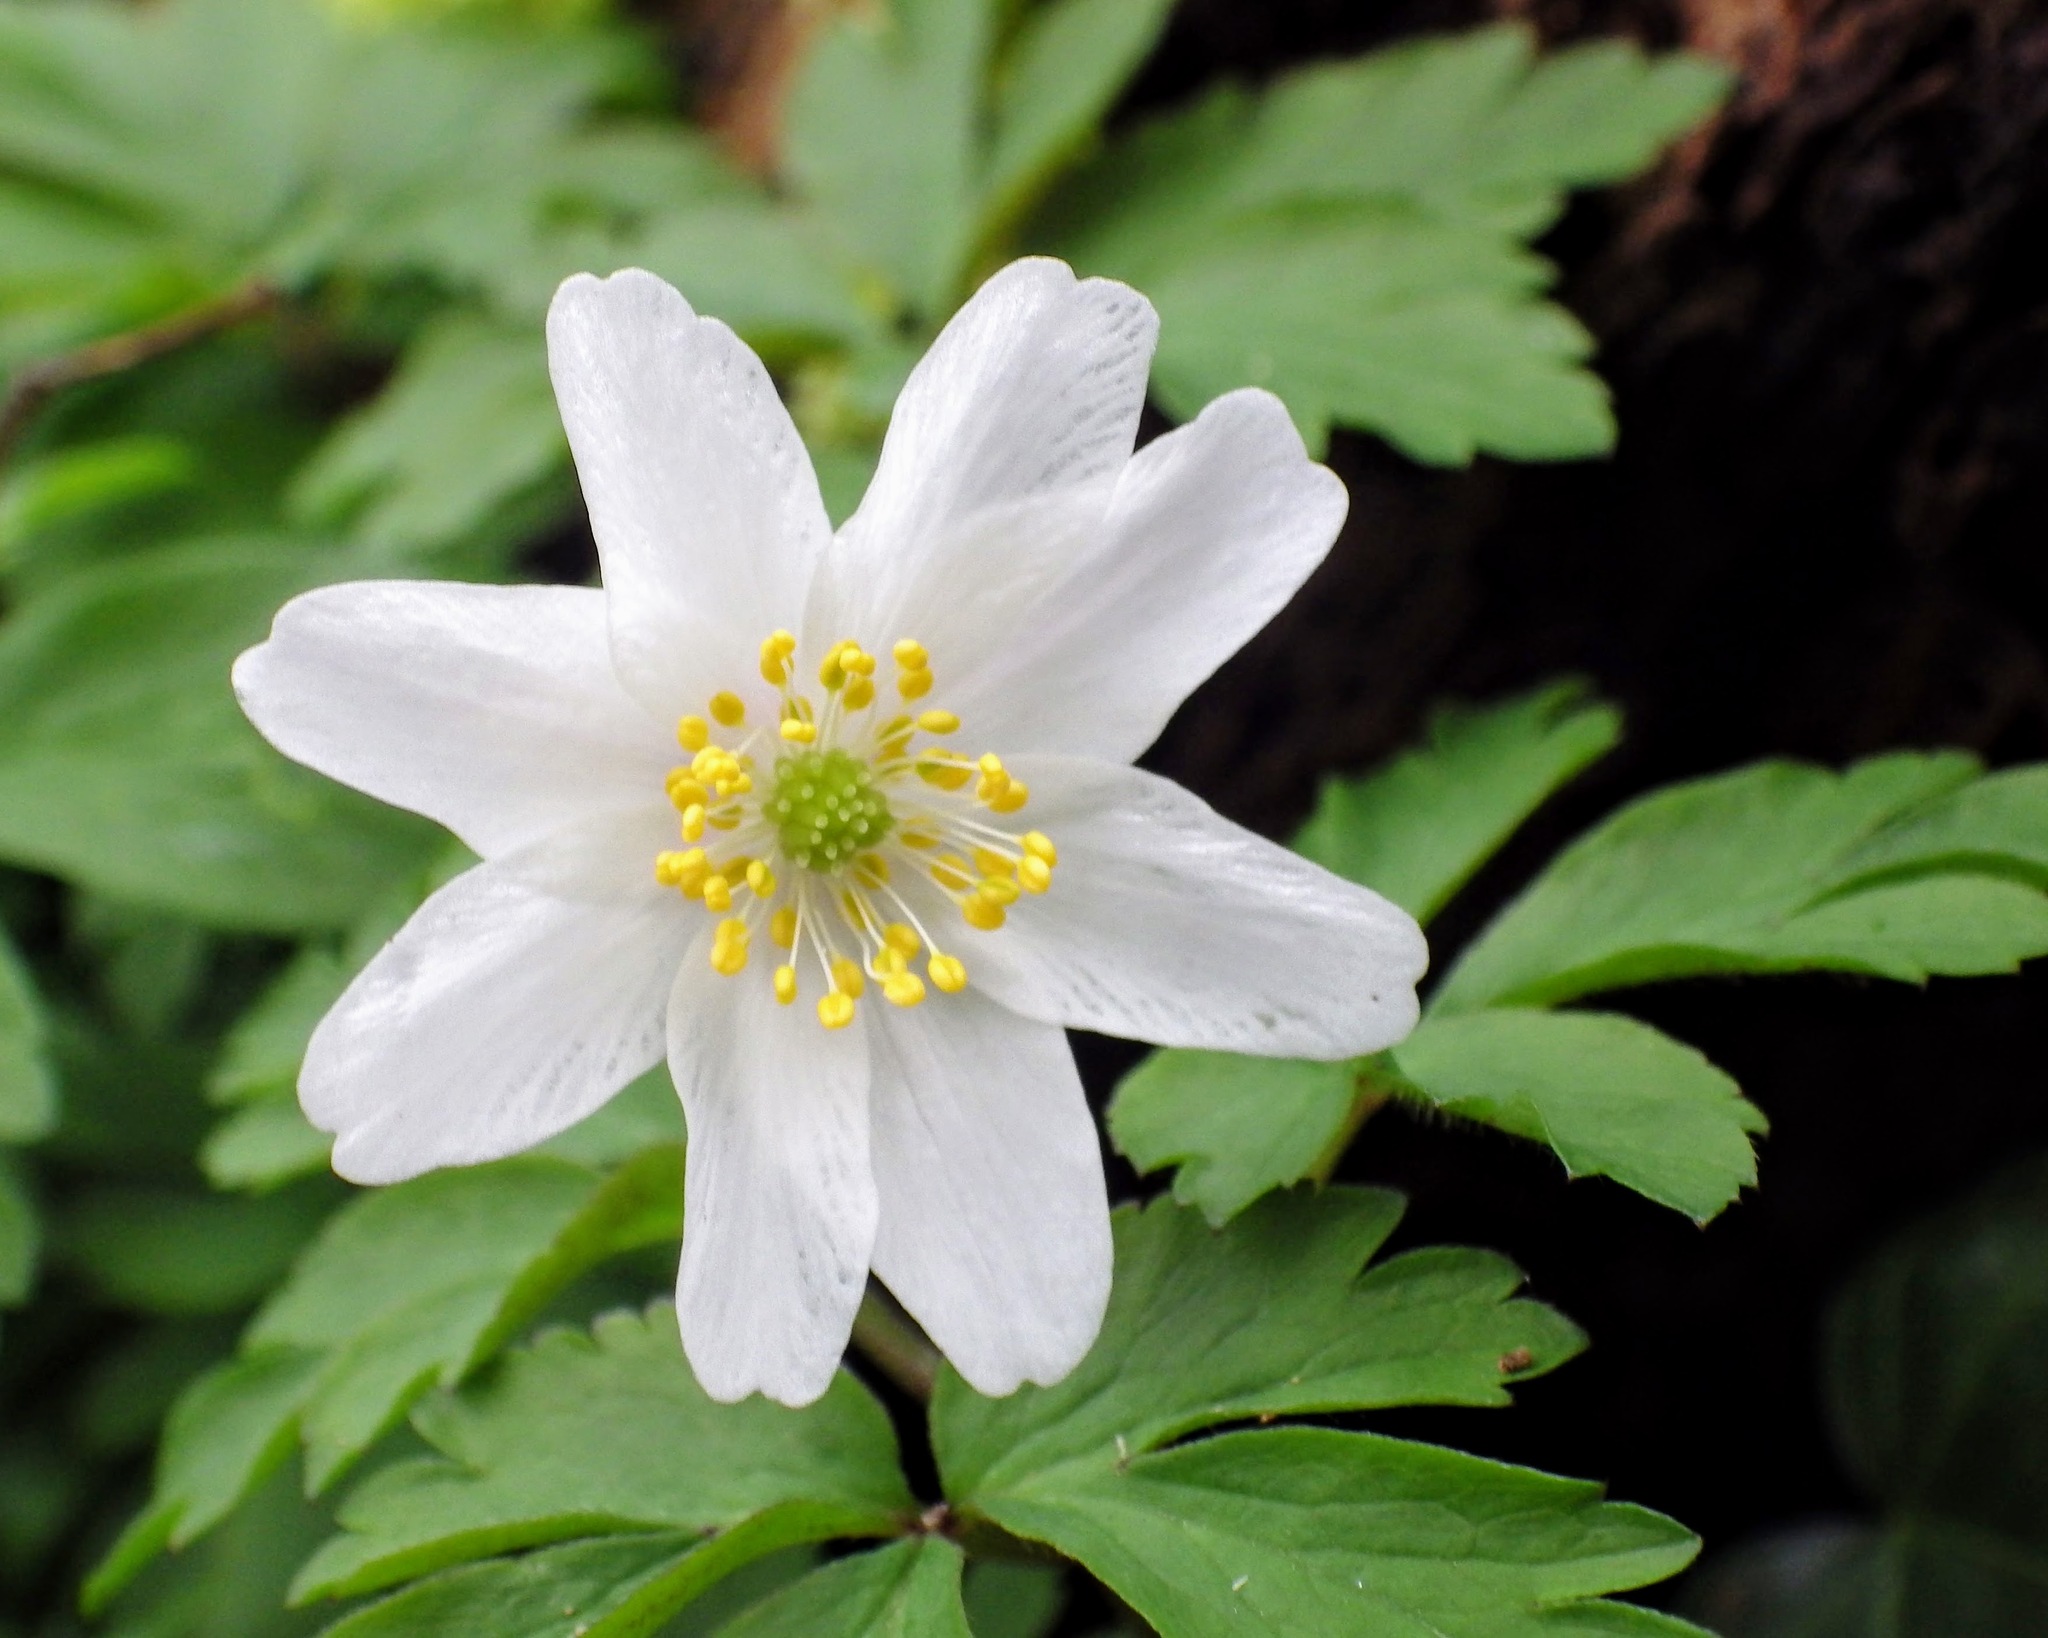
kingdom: Plantae
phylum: Tracheophyta
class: Magnoliopsida
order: Ranunculales
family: Ranunculaceae
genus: Anemone
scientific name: Anemone nemorosa
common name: Wood anemone
